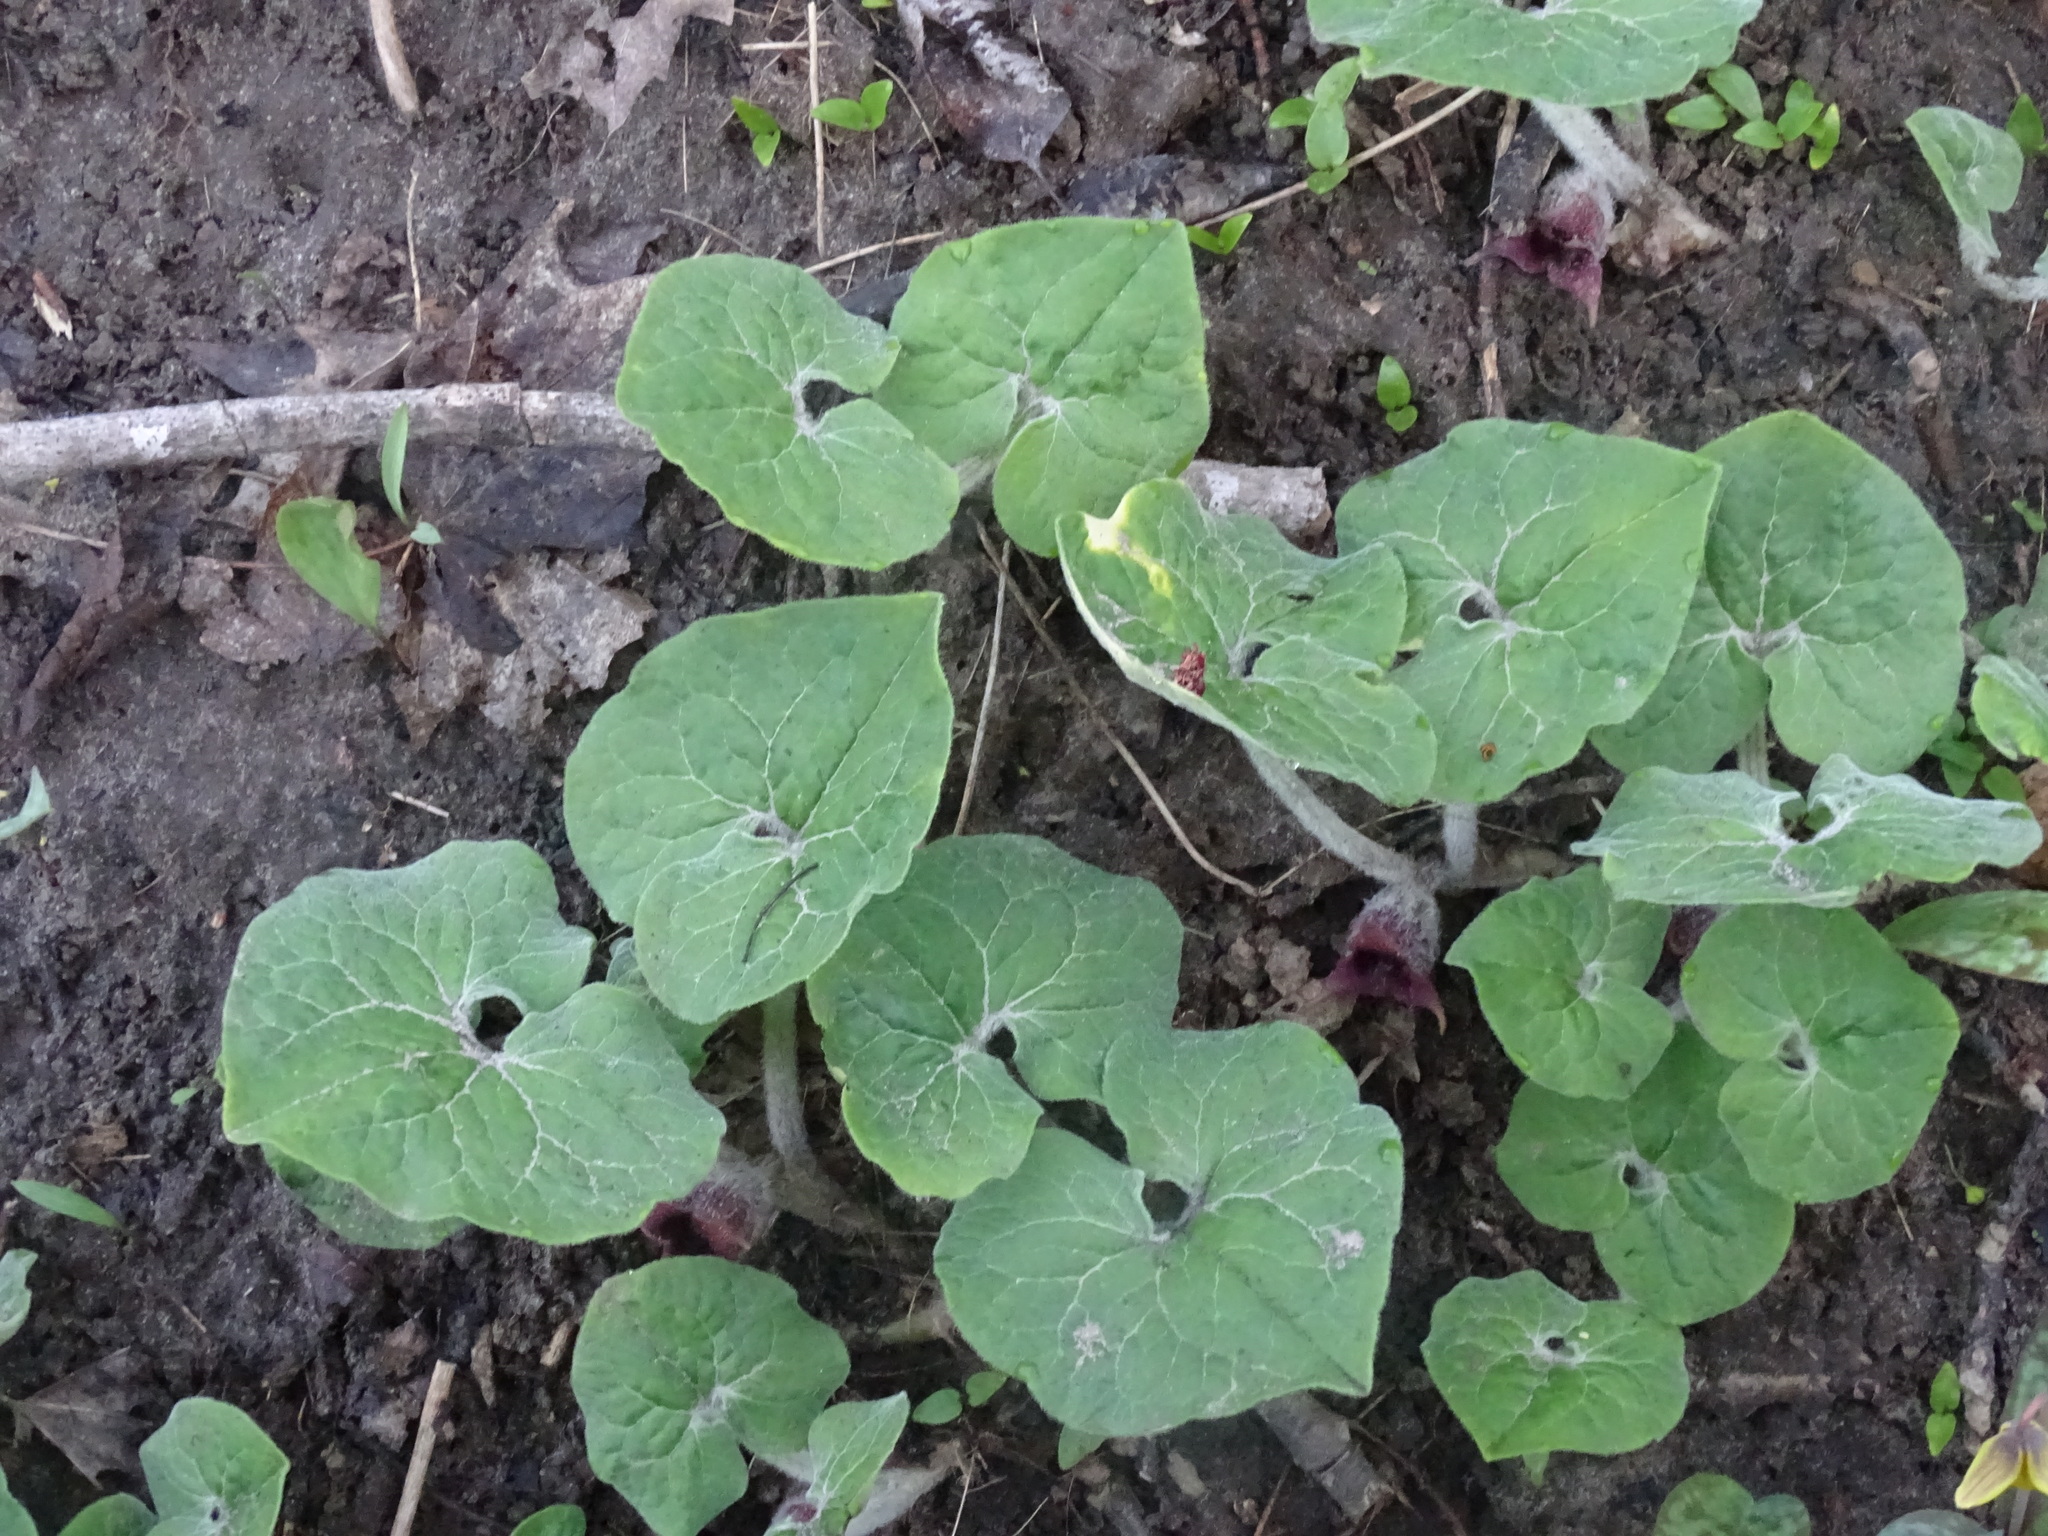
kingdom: Plantae
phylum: Tracheophyta
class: Magnoliopsida
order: Piperales
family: Aristolochiaceae
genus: Asarum
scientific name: Asarum canadense
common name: Wild ginger
